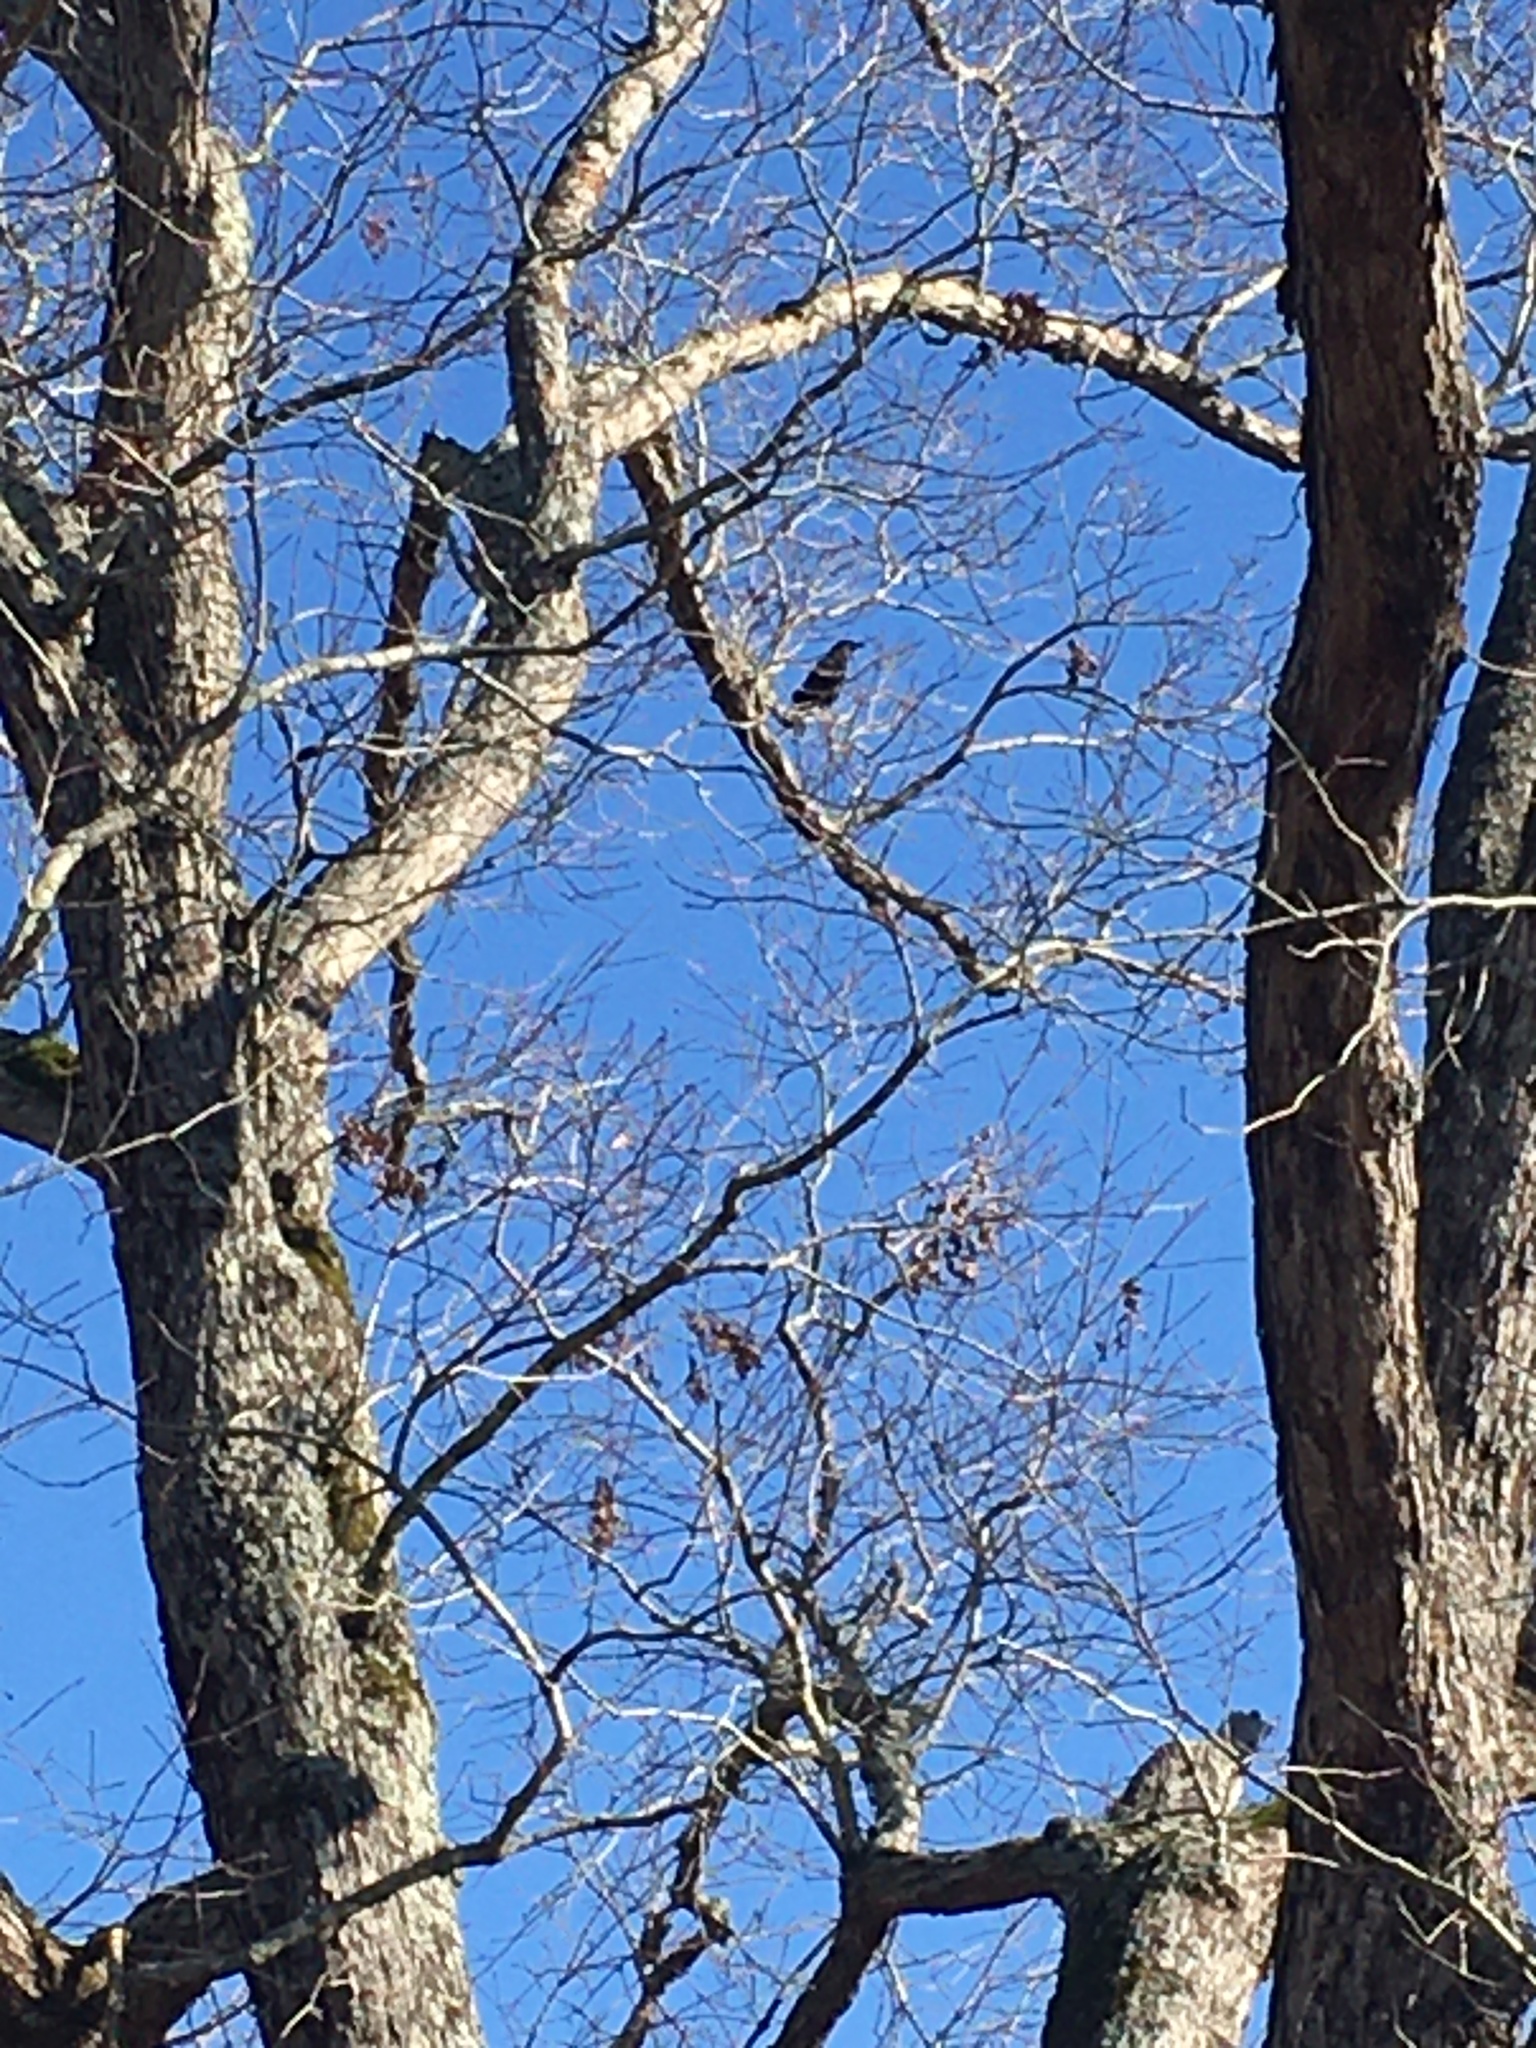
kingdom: Animalia
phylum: Chordata
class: Aves
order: Passeriformes
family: Corvidae
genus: Corvus
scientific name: Corvus brachyrhynchos
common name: American crow
